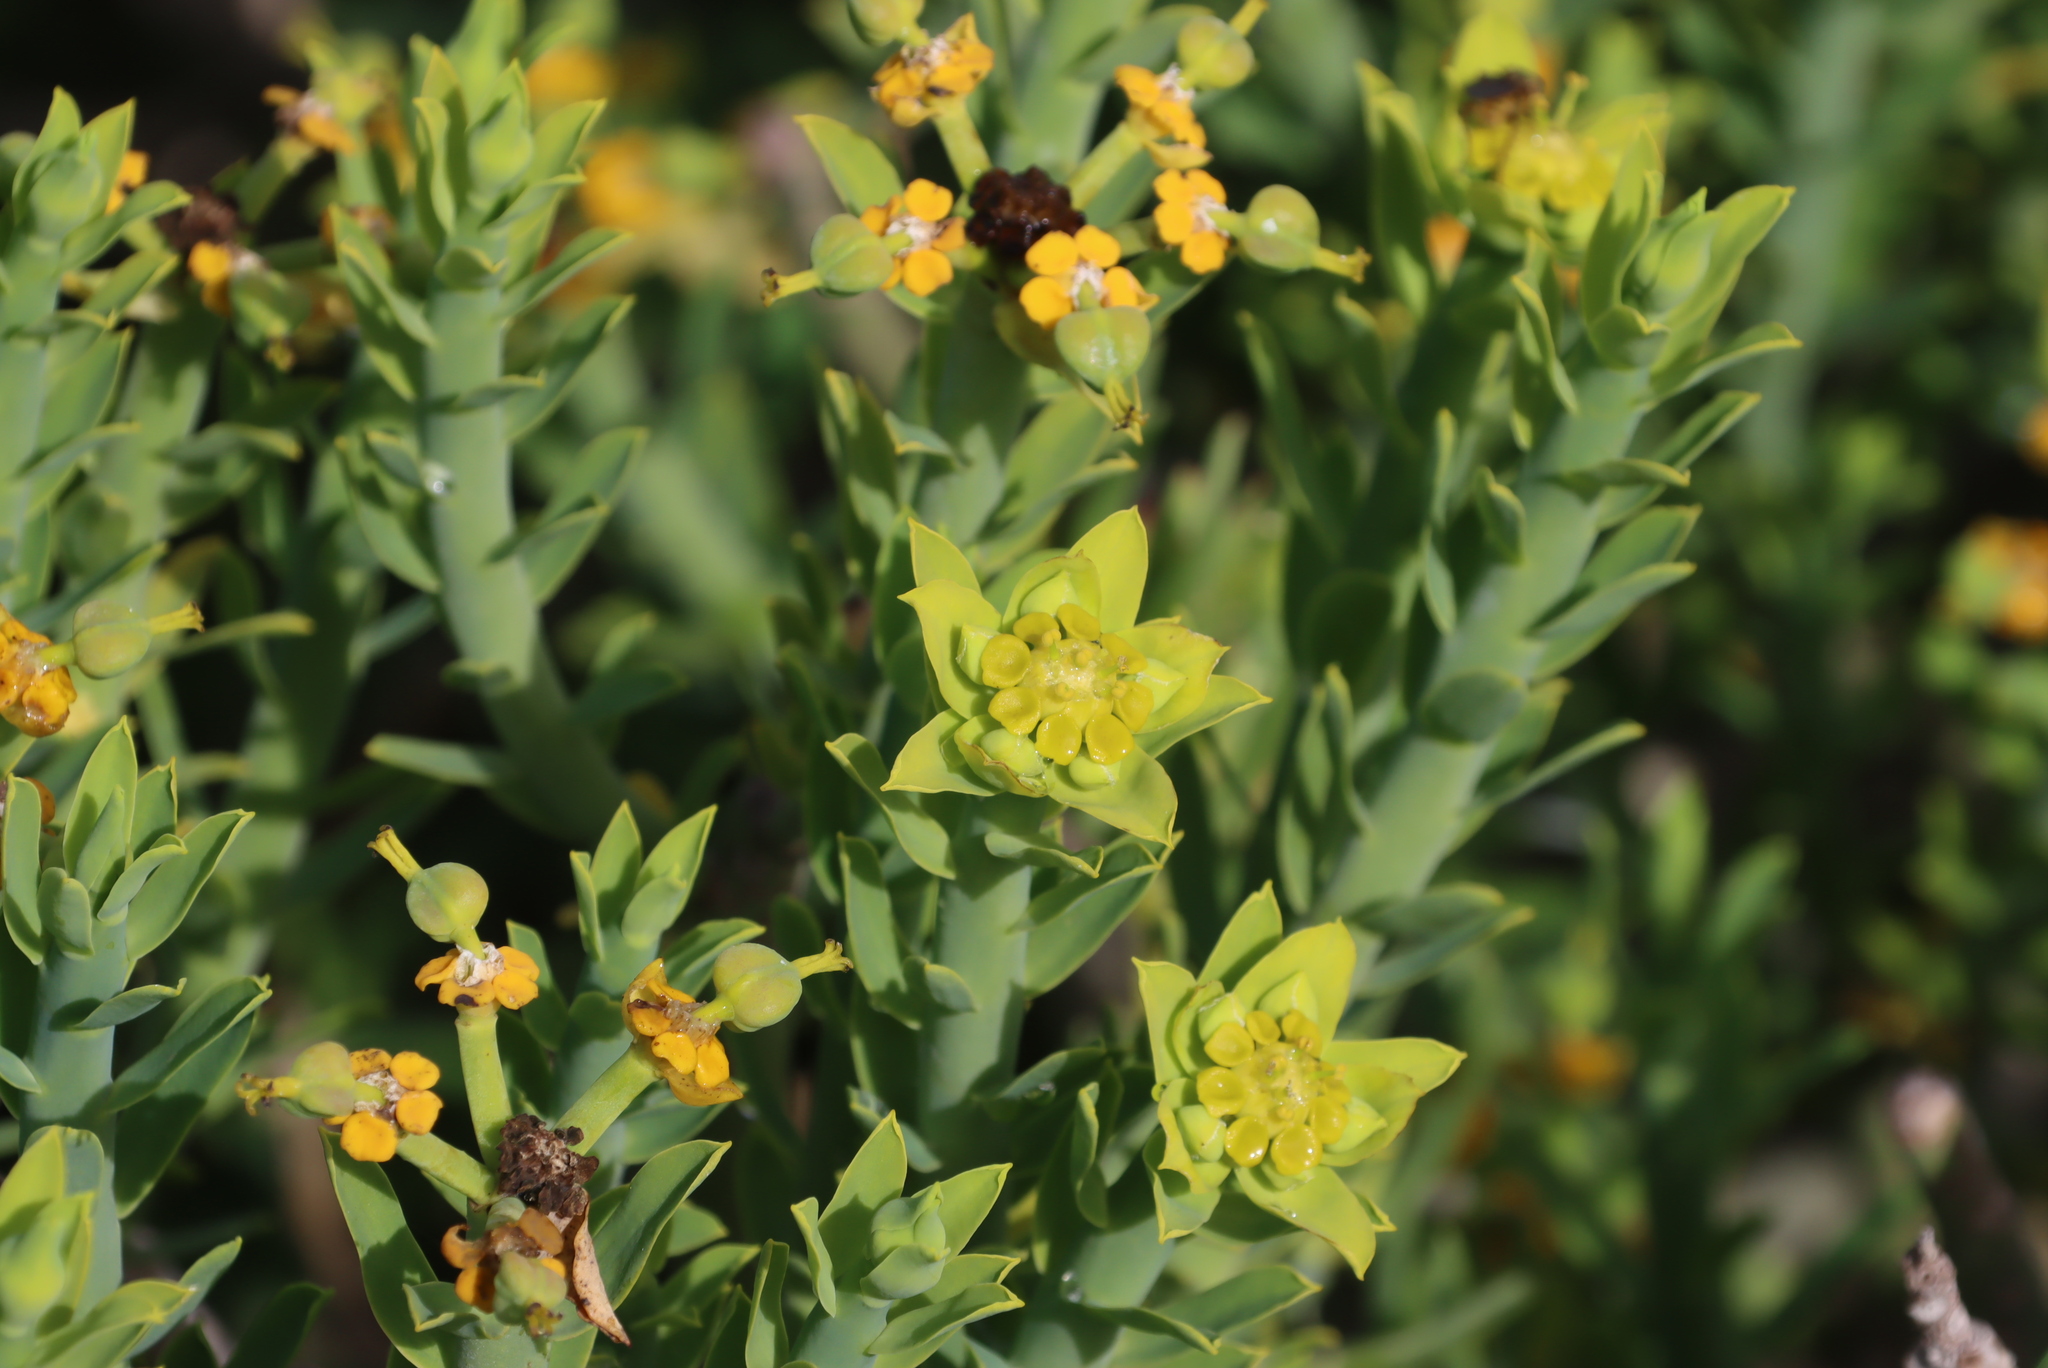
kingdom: Plantae
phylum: Tracheophyta
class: Magnoliopsida
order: Malpighiales
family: Euphorbiaceae
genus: Euphorbia
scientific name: Euphorbia mauritanica
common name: Jackal's-food
